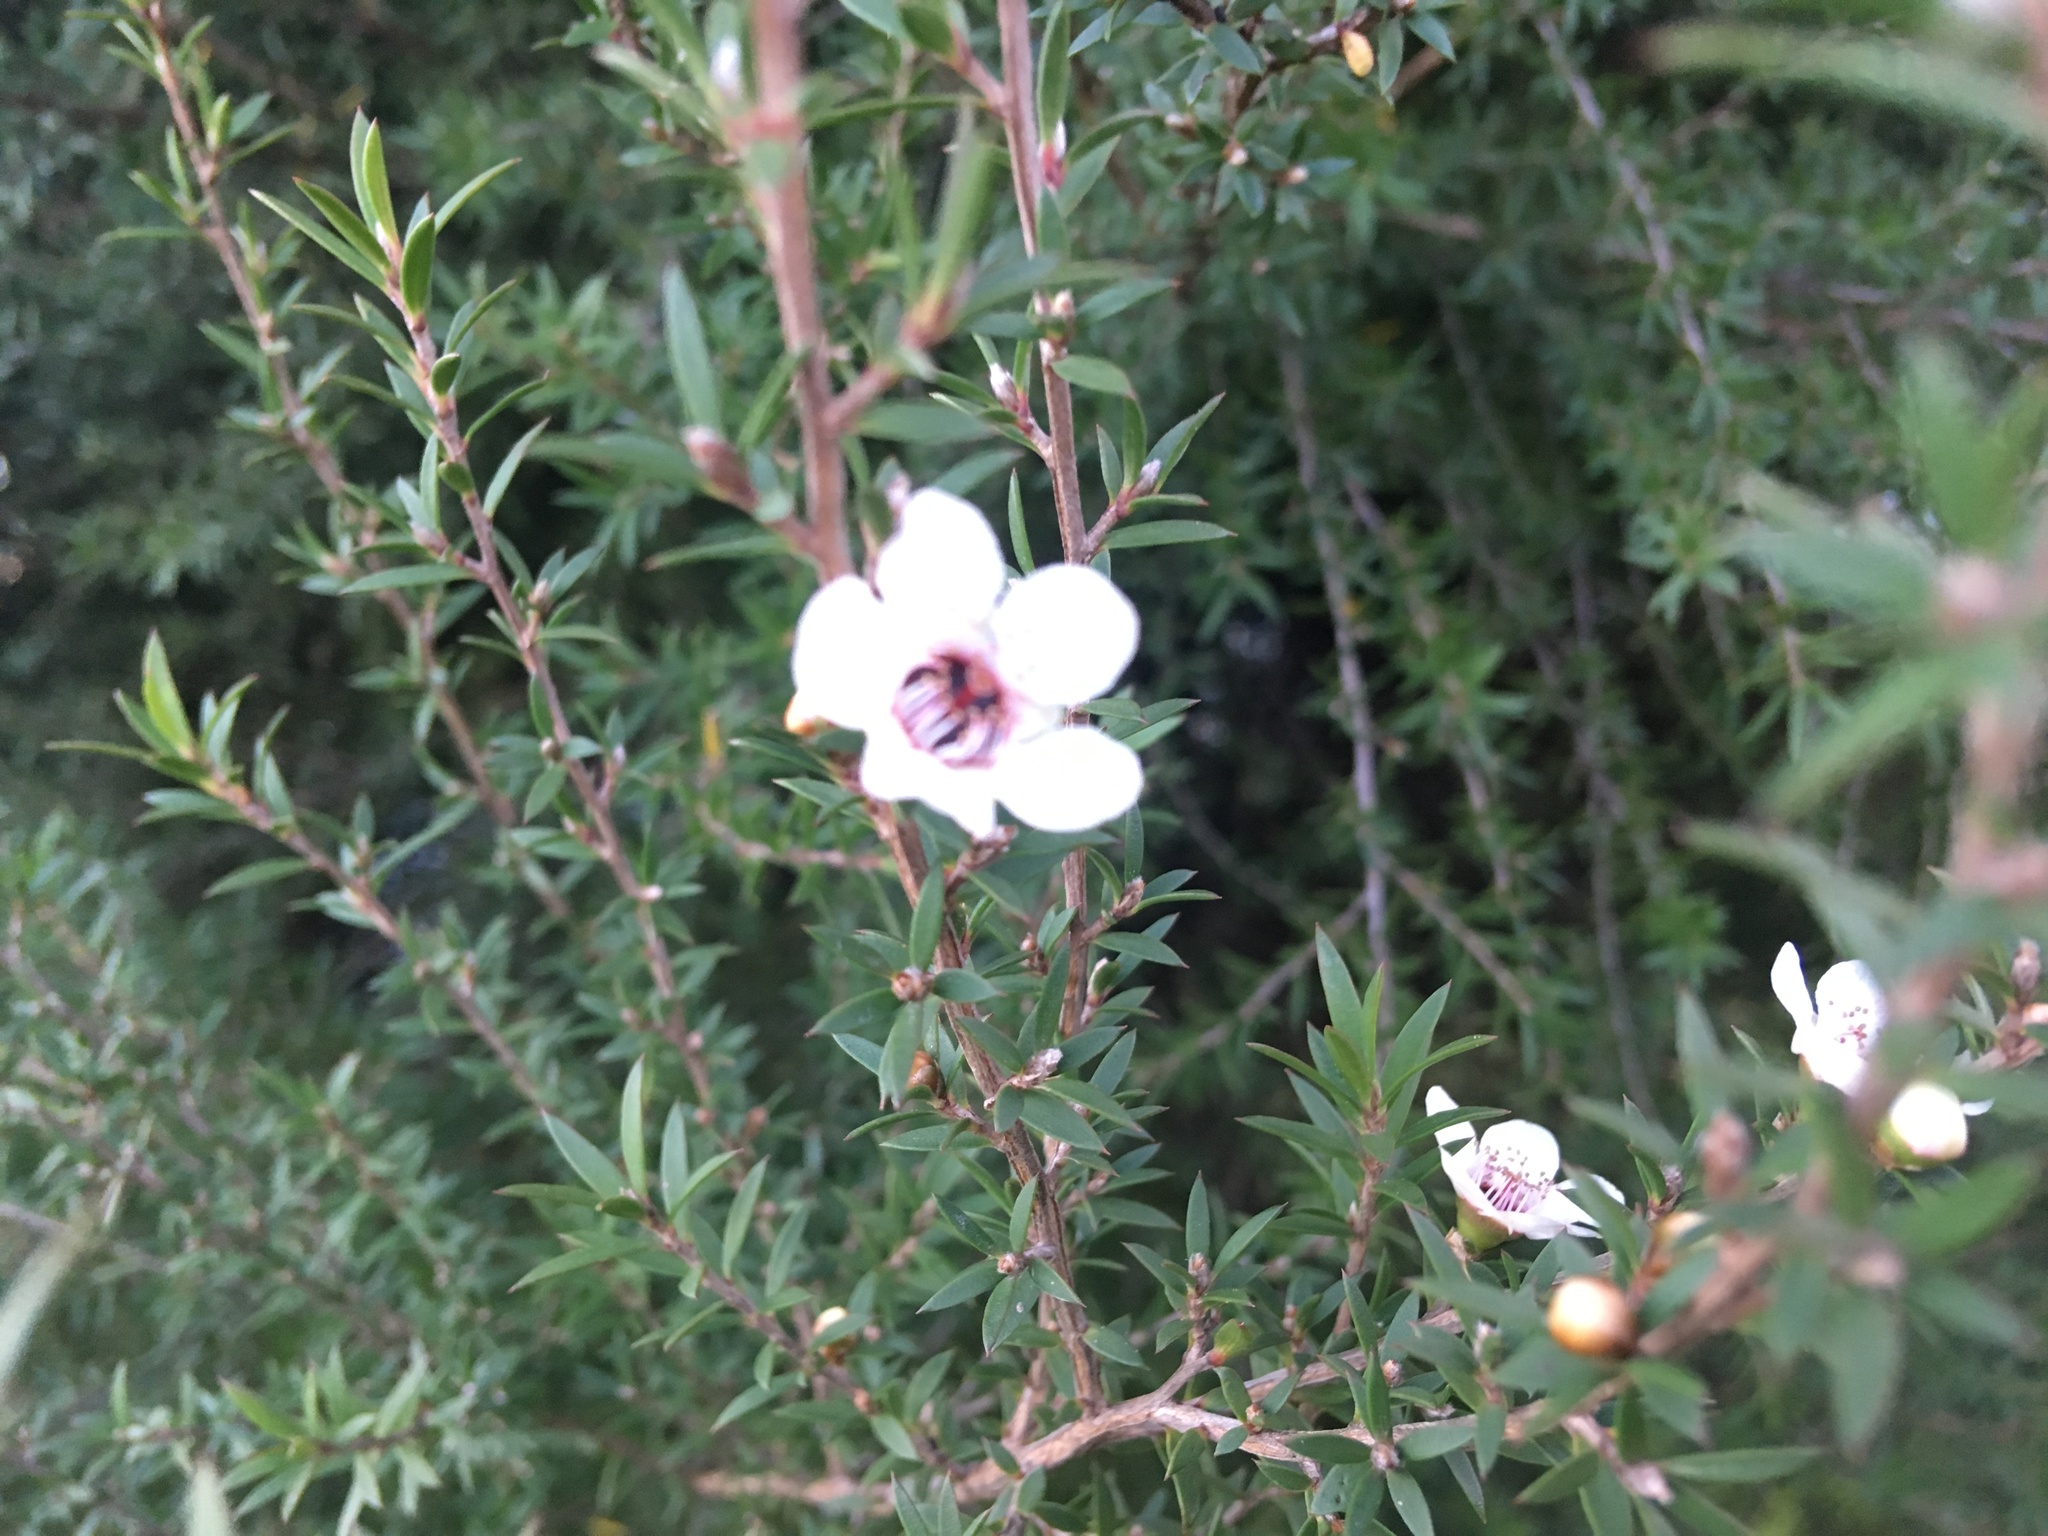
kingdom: Plantae
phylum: Tracheophyta
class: Magnoliopsida
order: Myrtales
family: Myrtaceae
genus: Leptospermum
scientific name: Leptospermum scoparium
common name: Broom tea-tree
